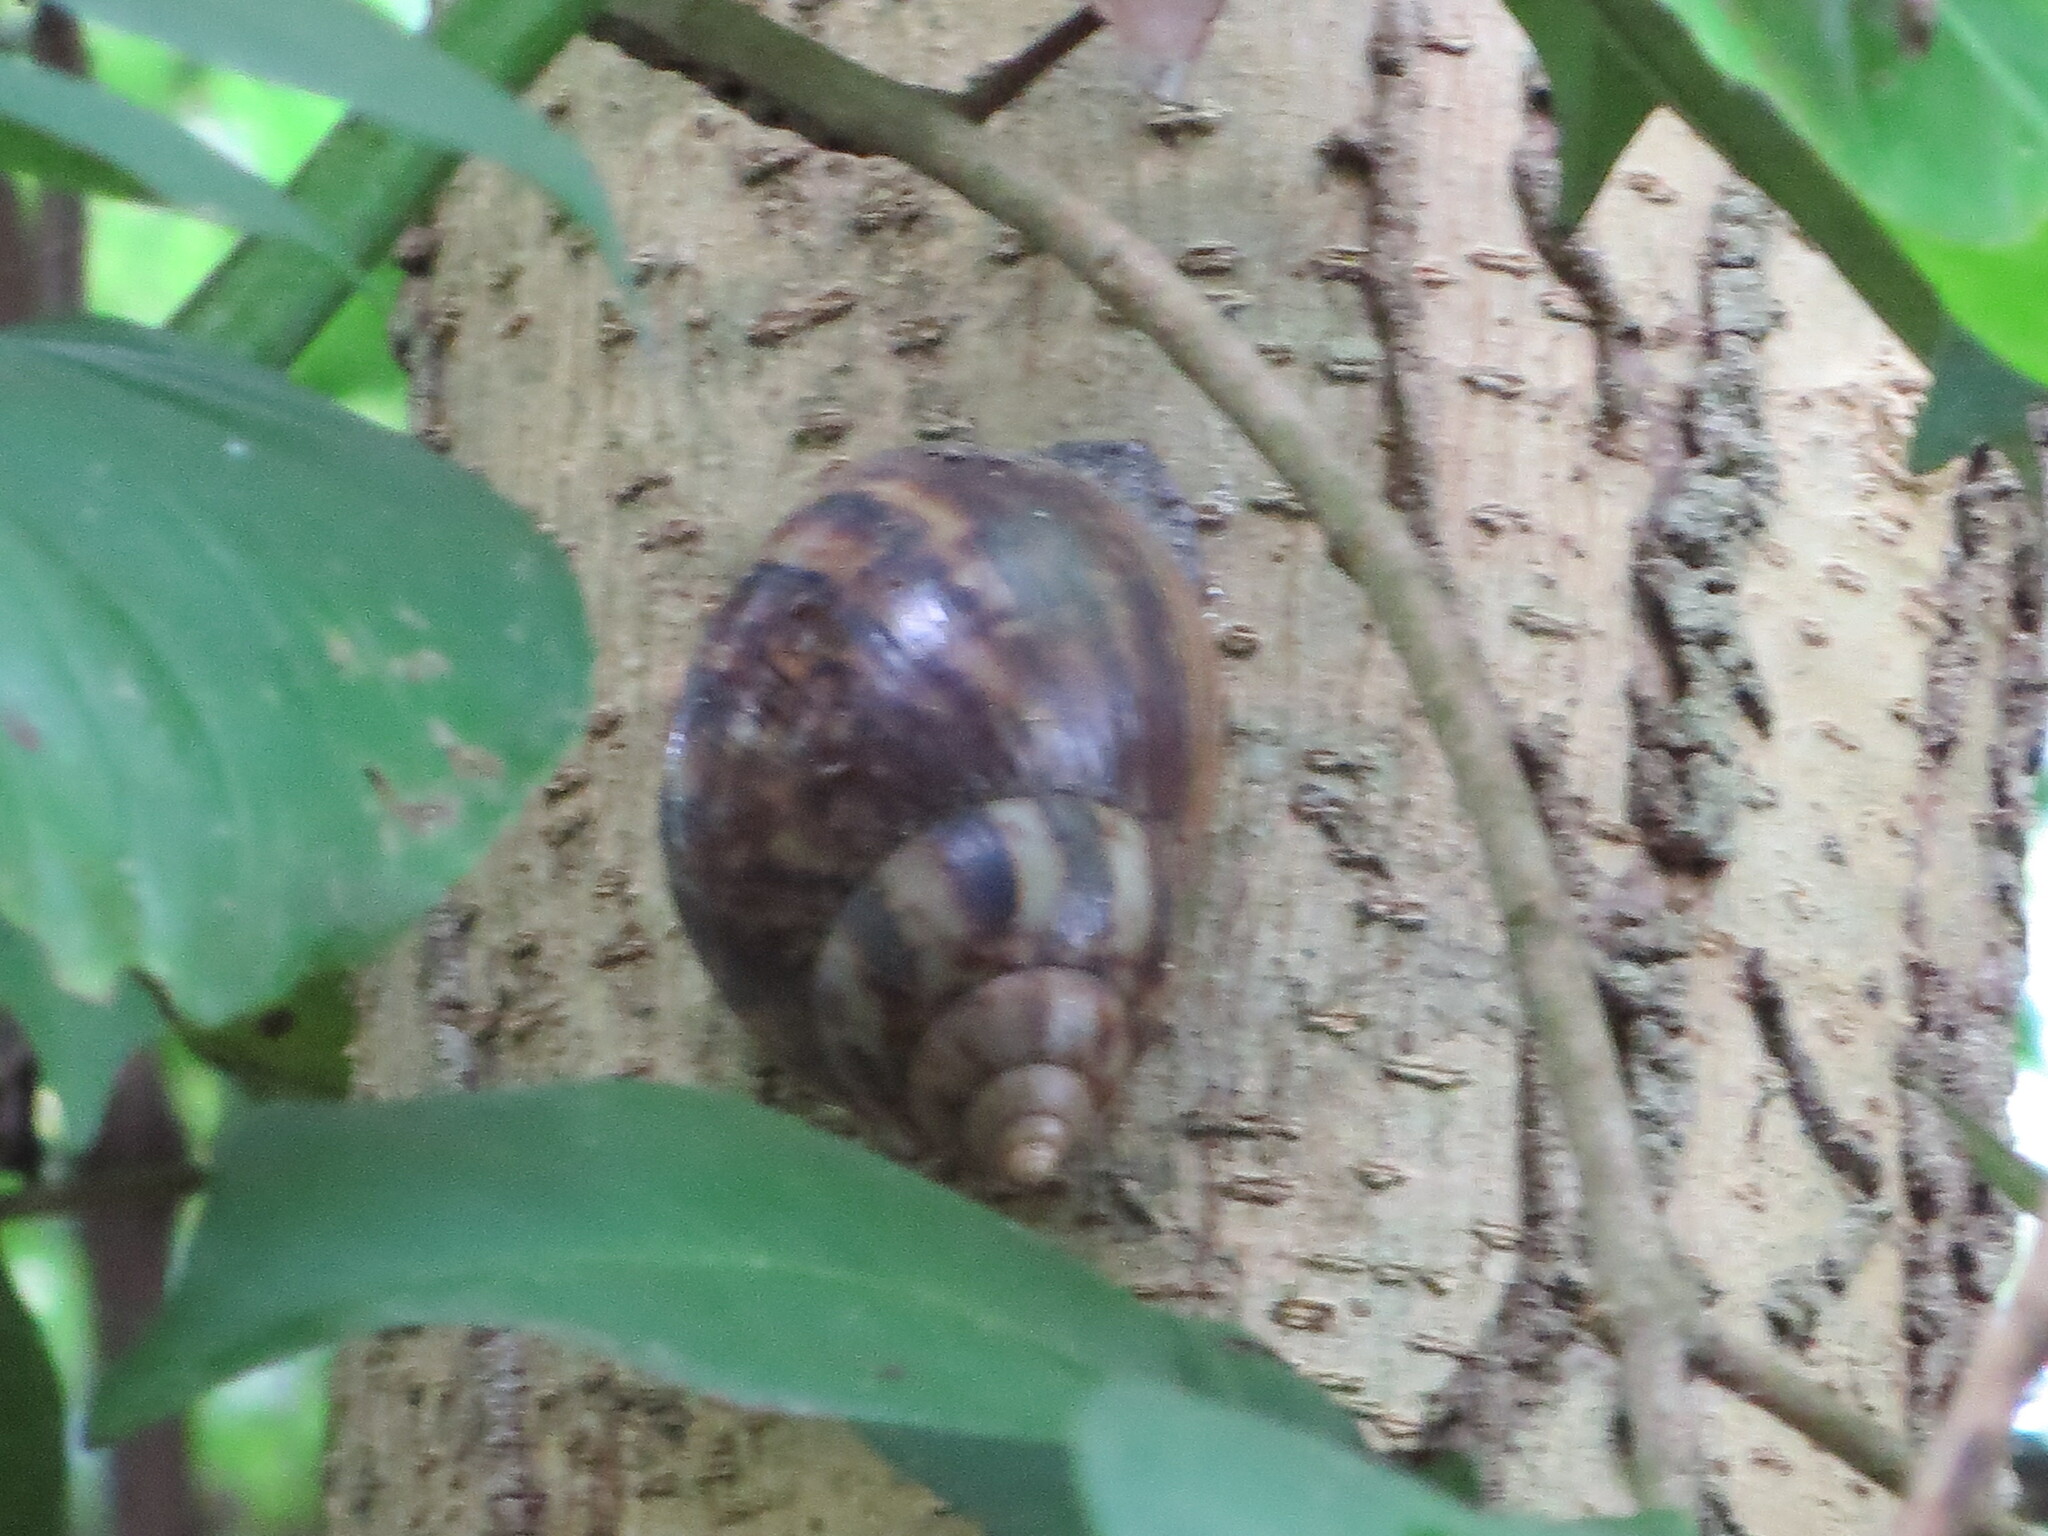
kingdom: Animalia
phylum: Mollusca
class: Gastropoda
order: Stylommatophora
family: Achatinidae
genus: Lissachatina
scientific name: Lissachatina fulica
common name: Giant african snail
